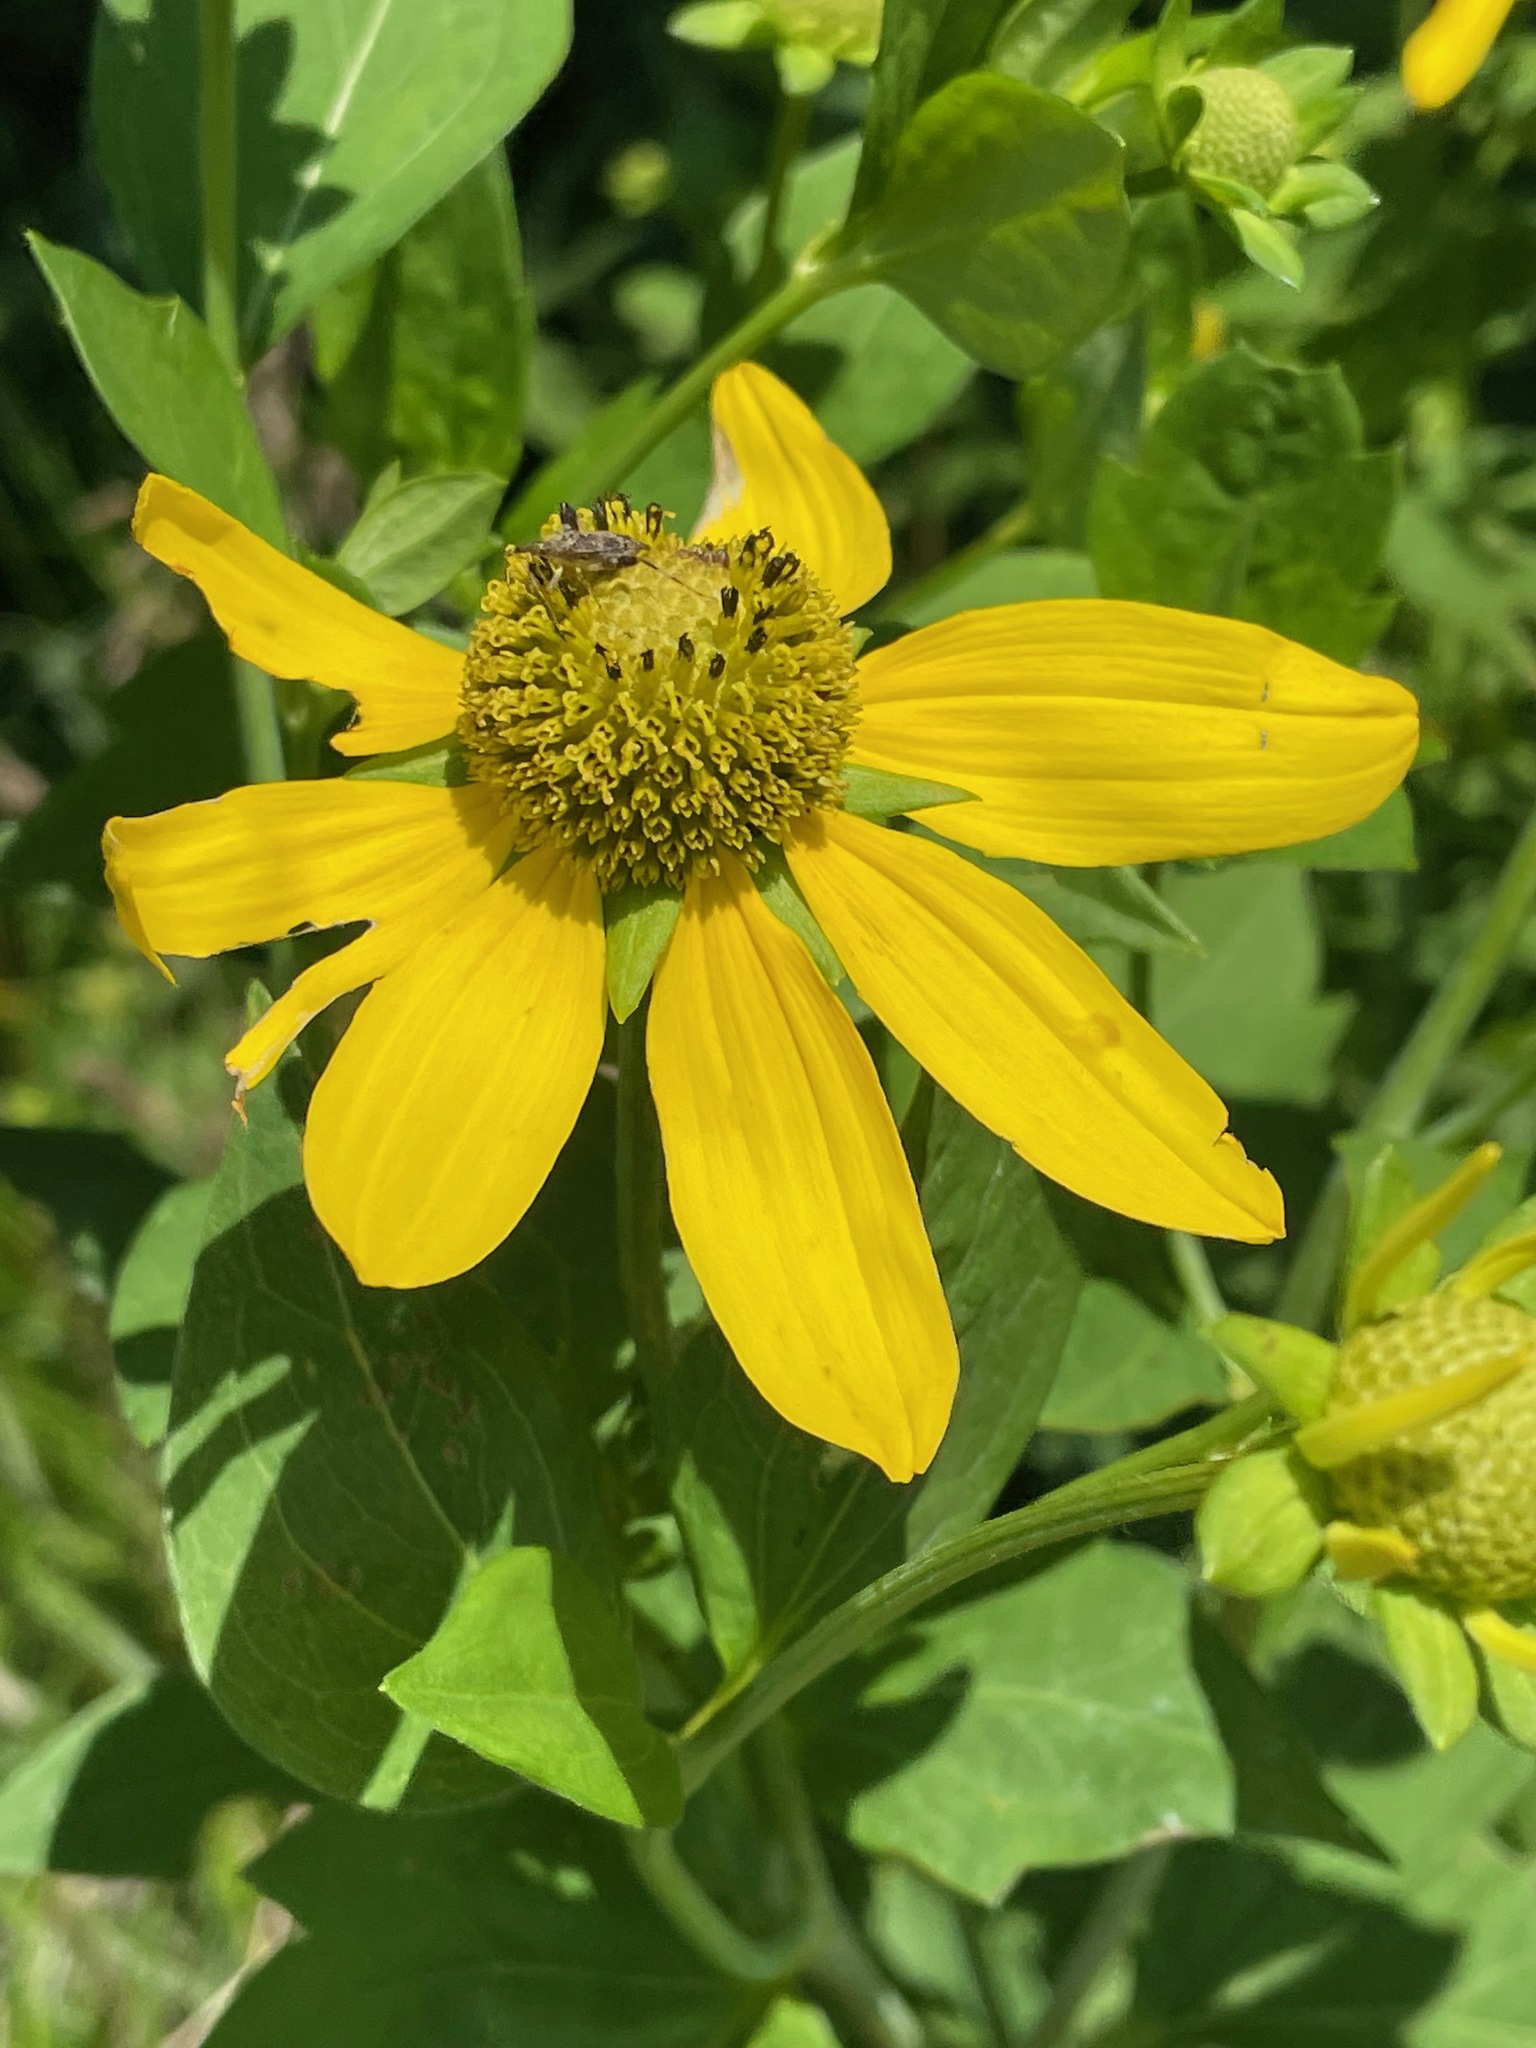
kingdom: Plantae
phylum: Tracheophyta
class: Magnoliopsida
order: Asterales
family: Asteraceae
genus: Rudbeckia
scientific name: Rudbeckia laciniata
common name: Coneflower
